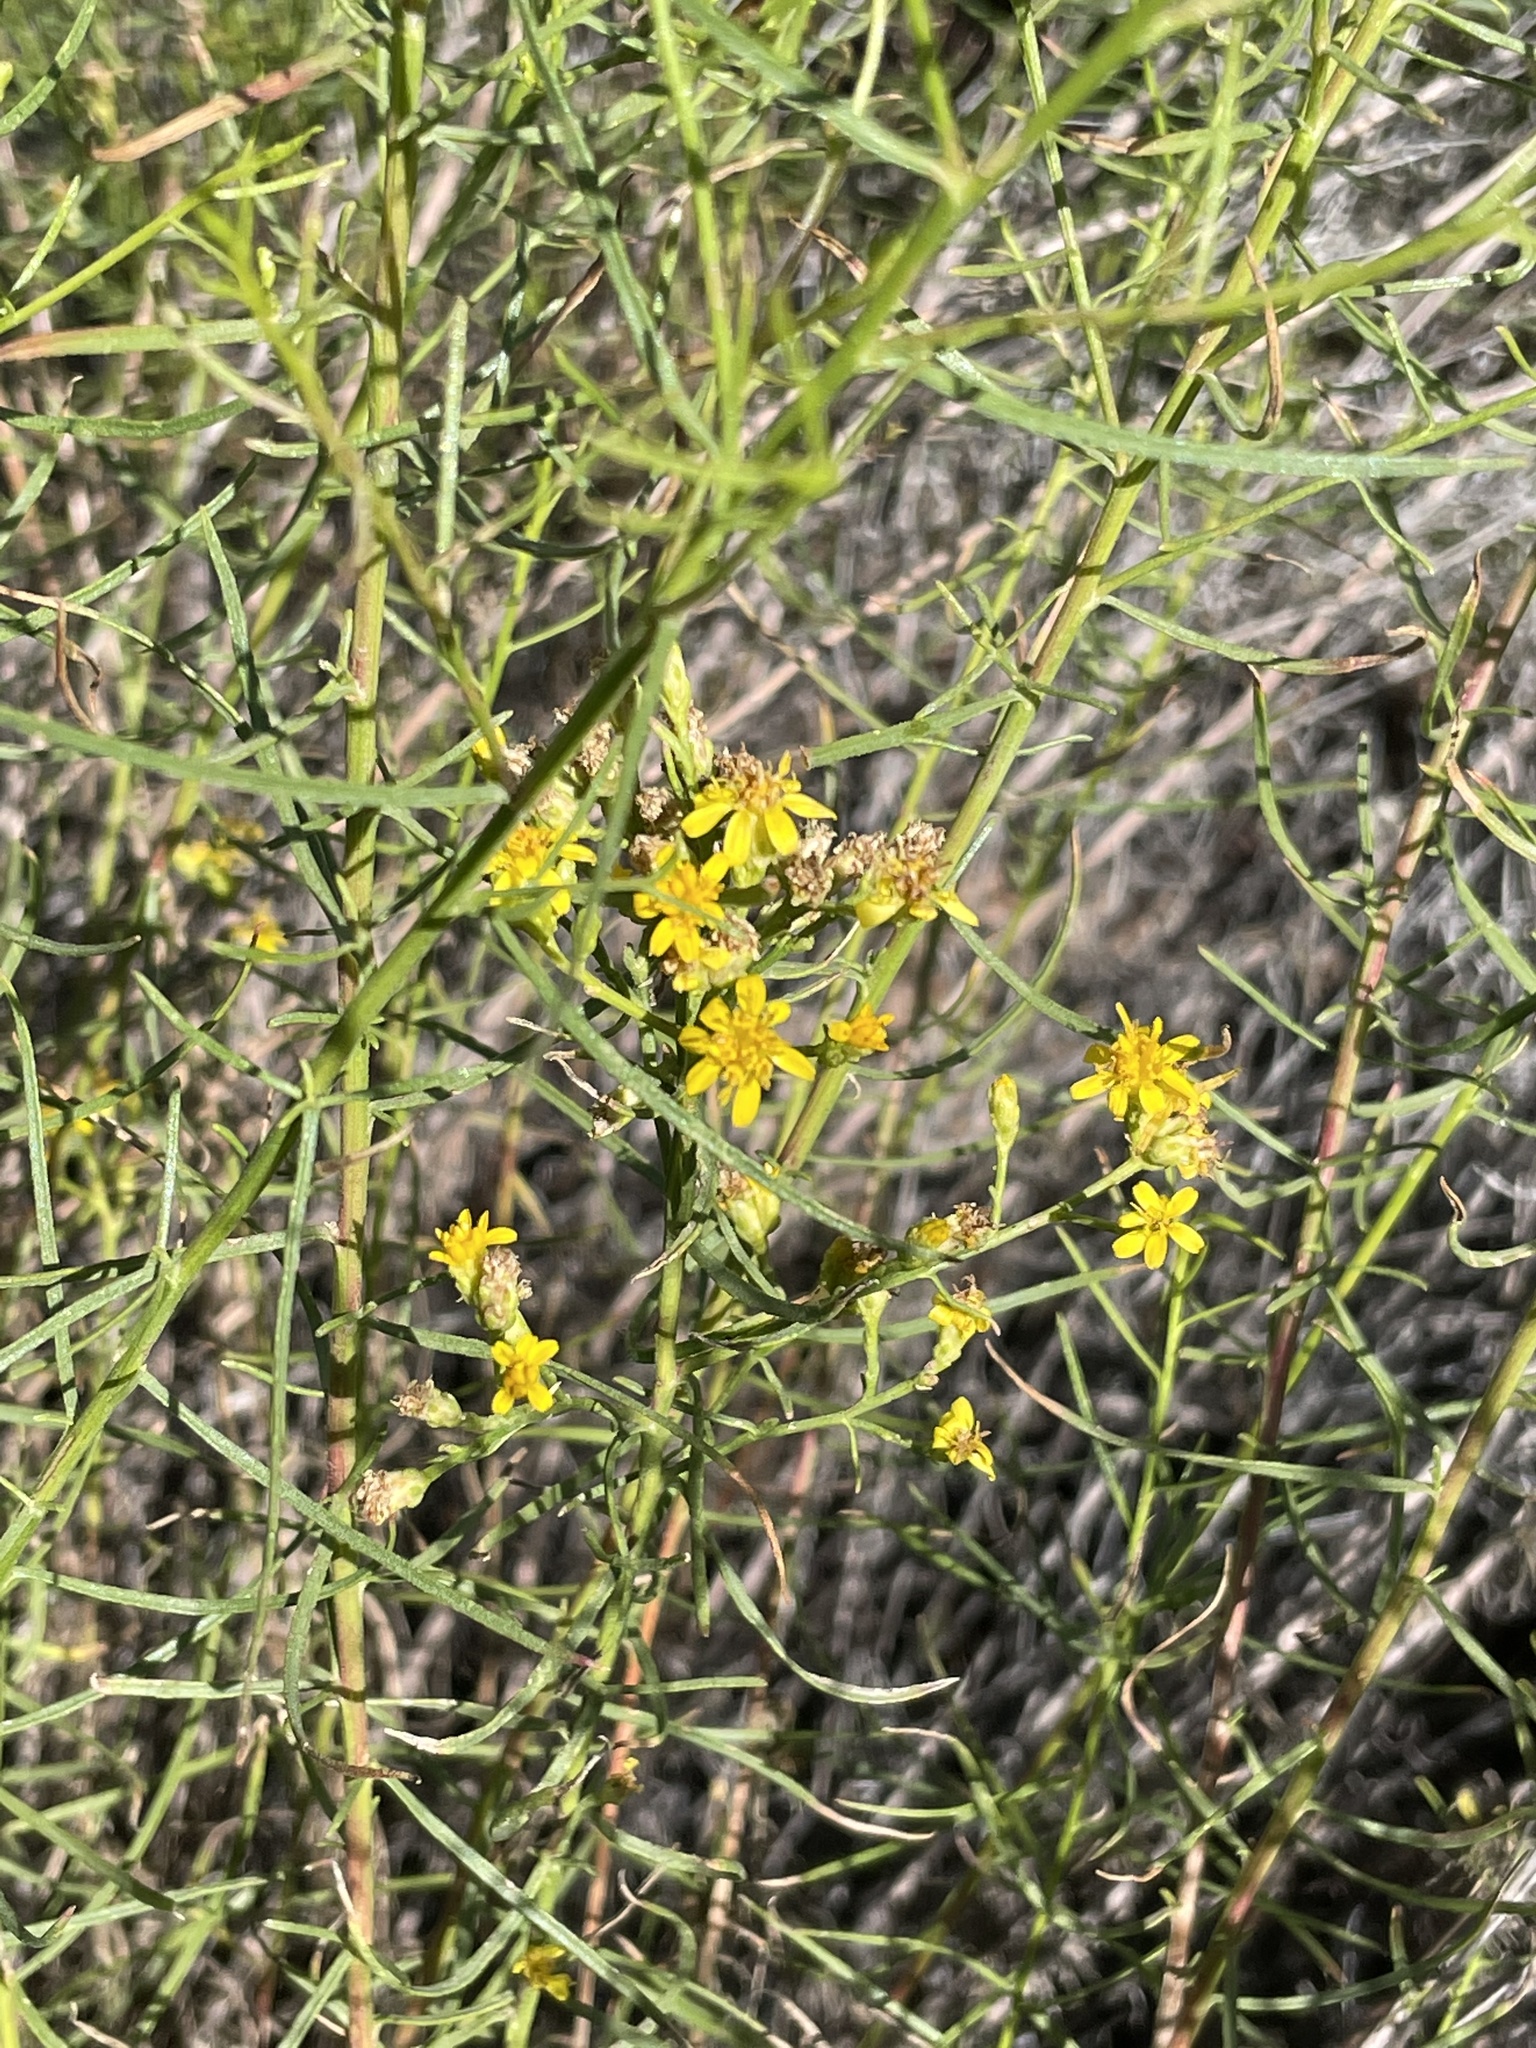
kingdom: Plantae
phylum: Tracheophyta
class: Magnoliopsida
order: Asterales
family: Asteraceae
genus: Gutierrezia
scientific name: Gutierrezia sarothrae
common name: Broom snakeweed
